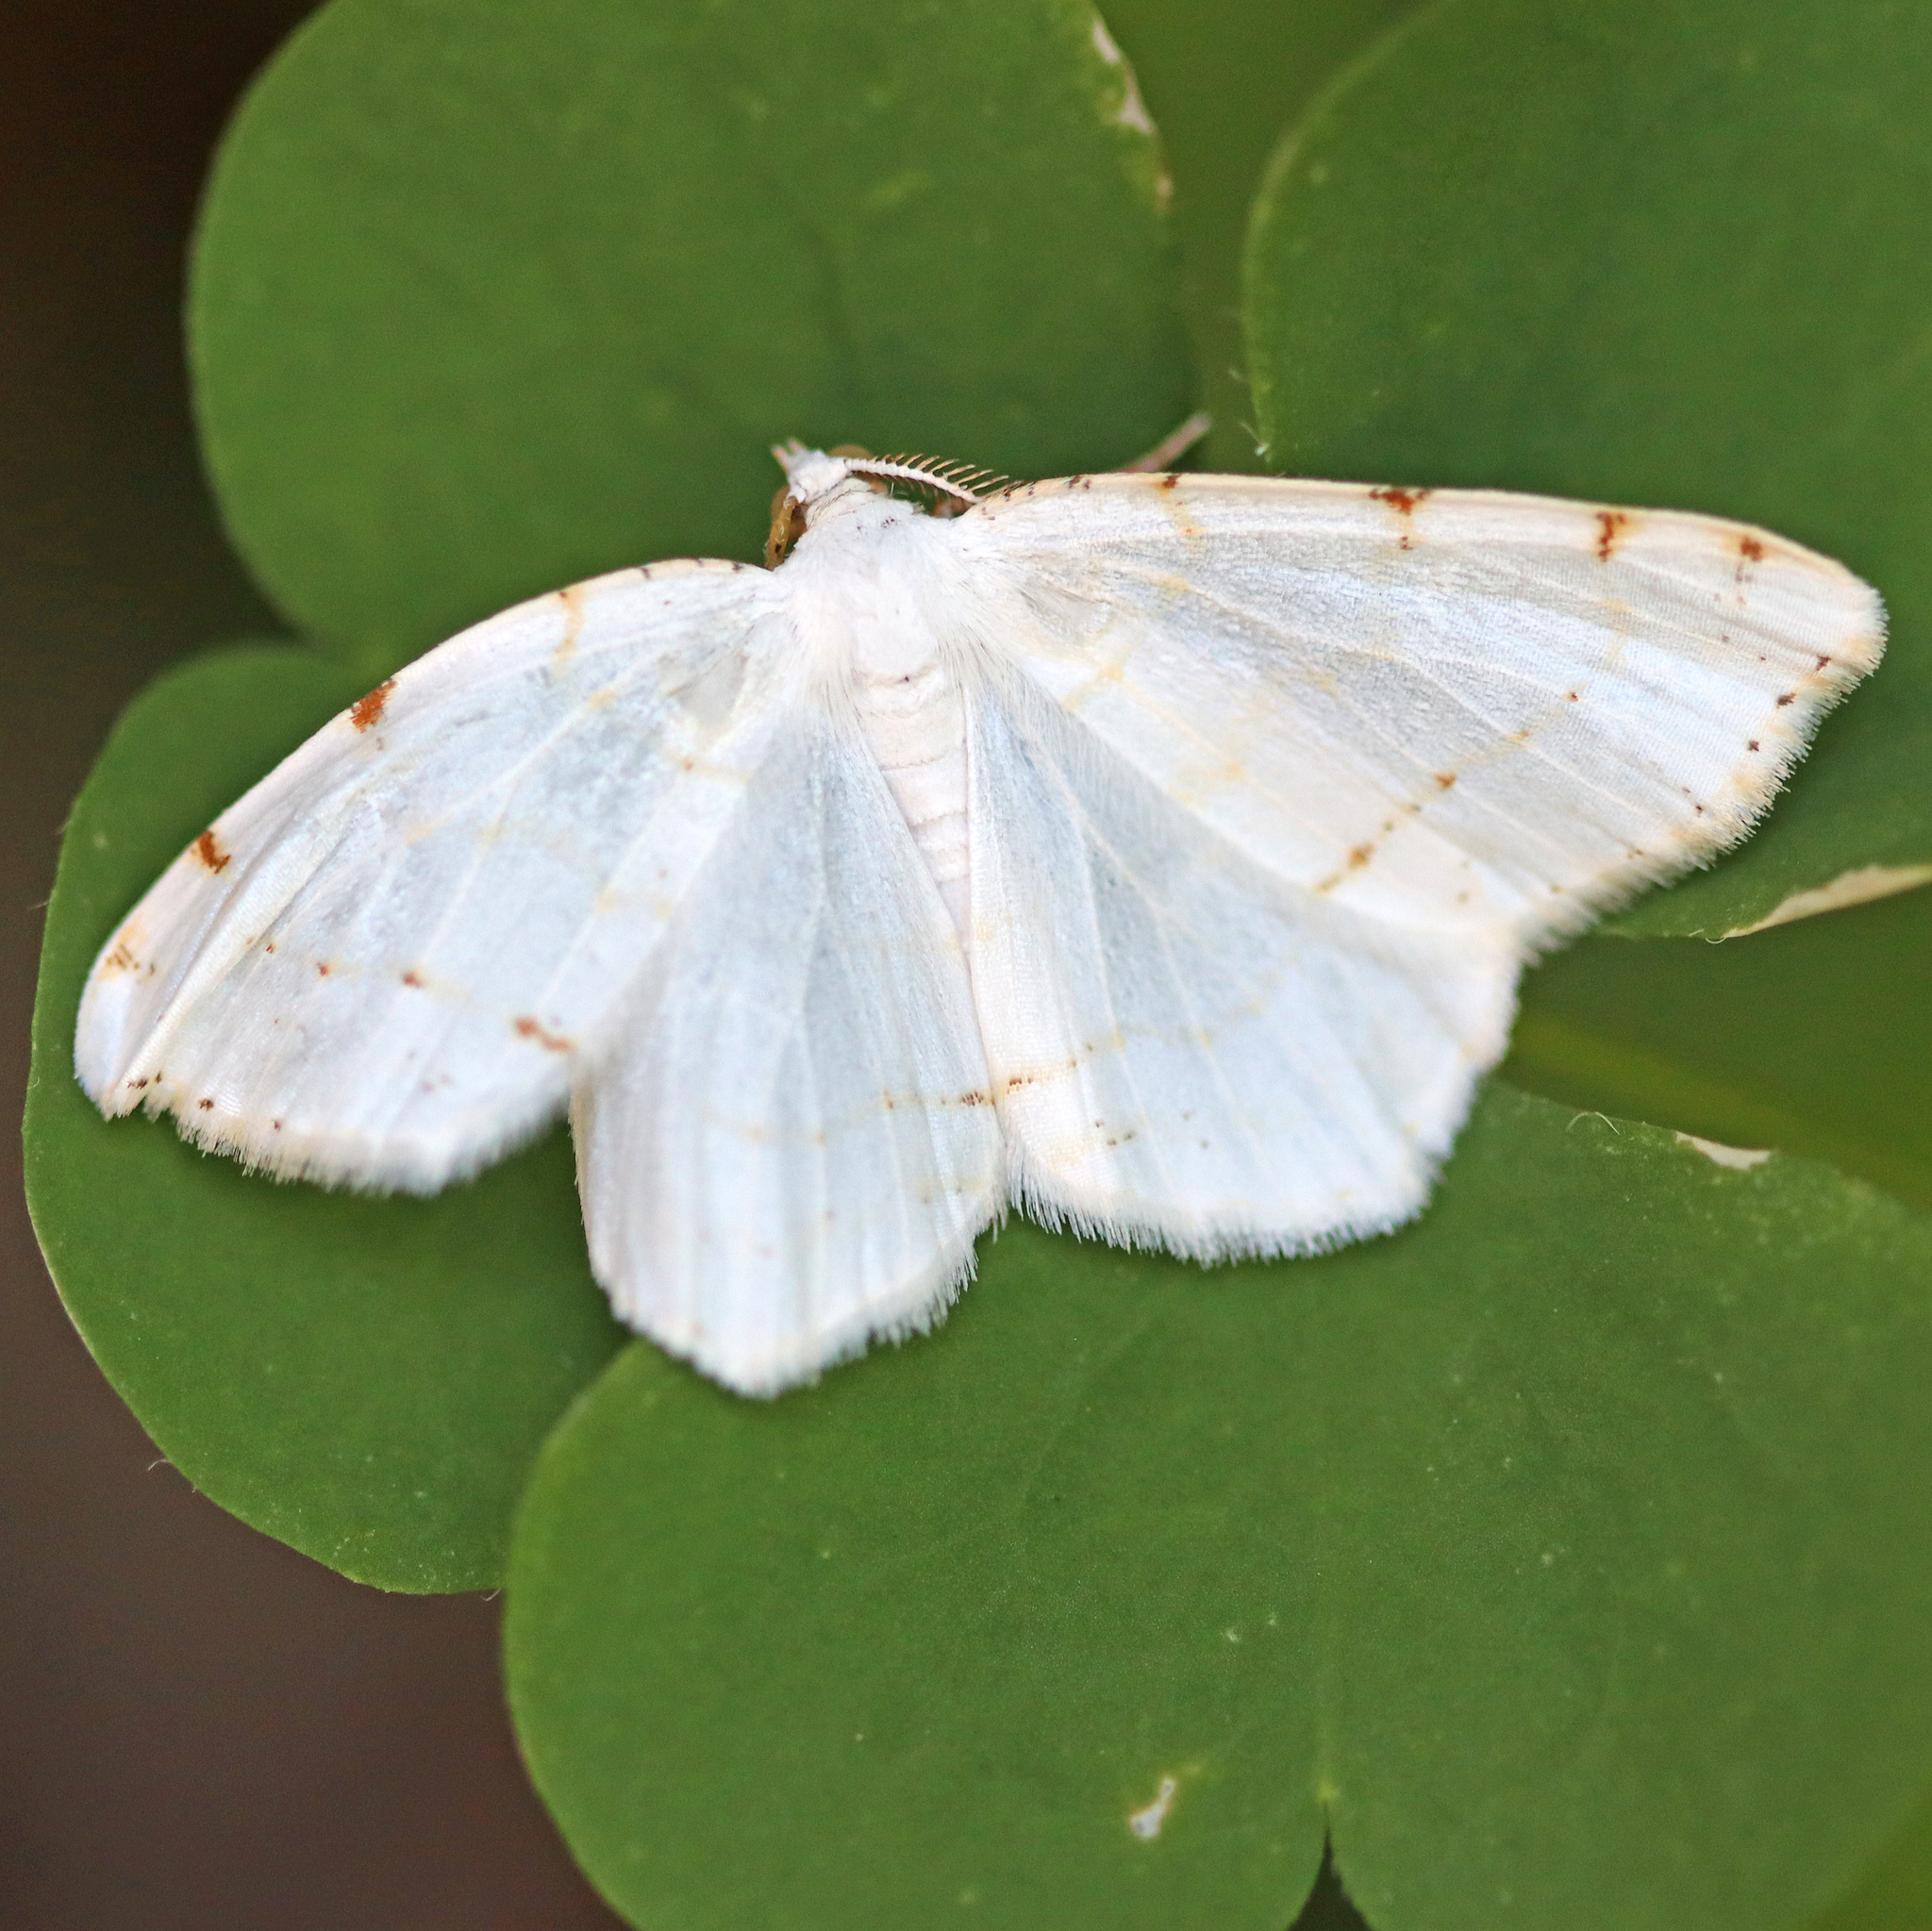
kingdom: Animalia
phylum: Arthropoda
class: Insecta
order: Lepidoptera
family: Geometridae
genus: Macaria
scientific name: Macaria pustularia
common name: Lesser maple spanworm moth
